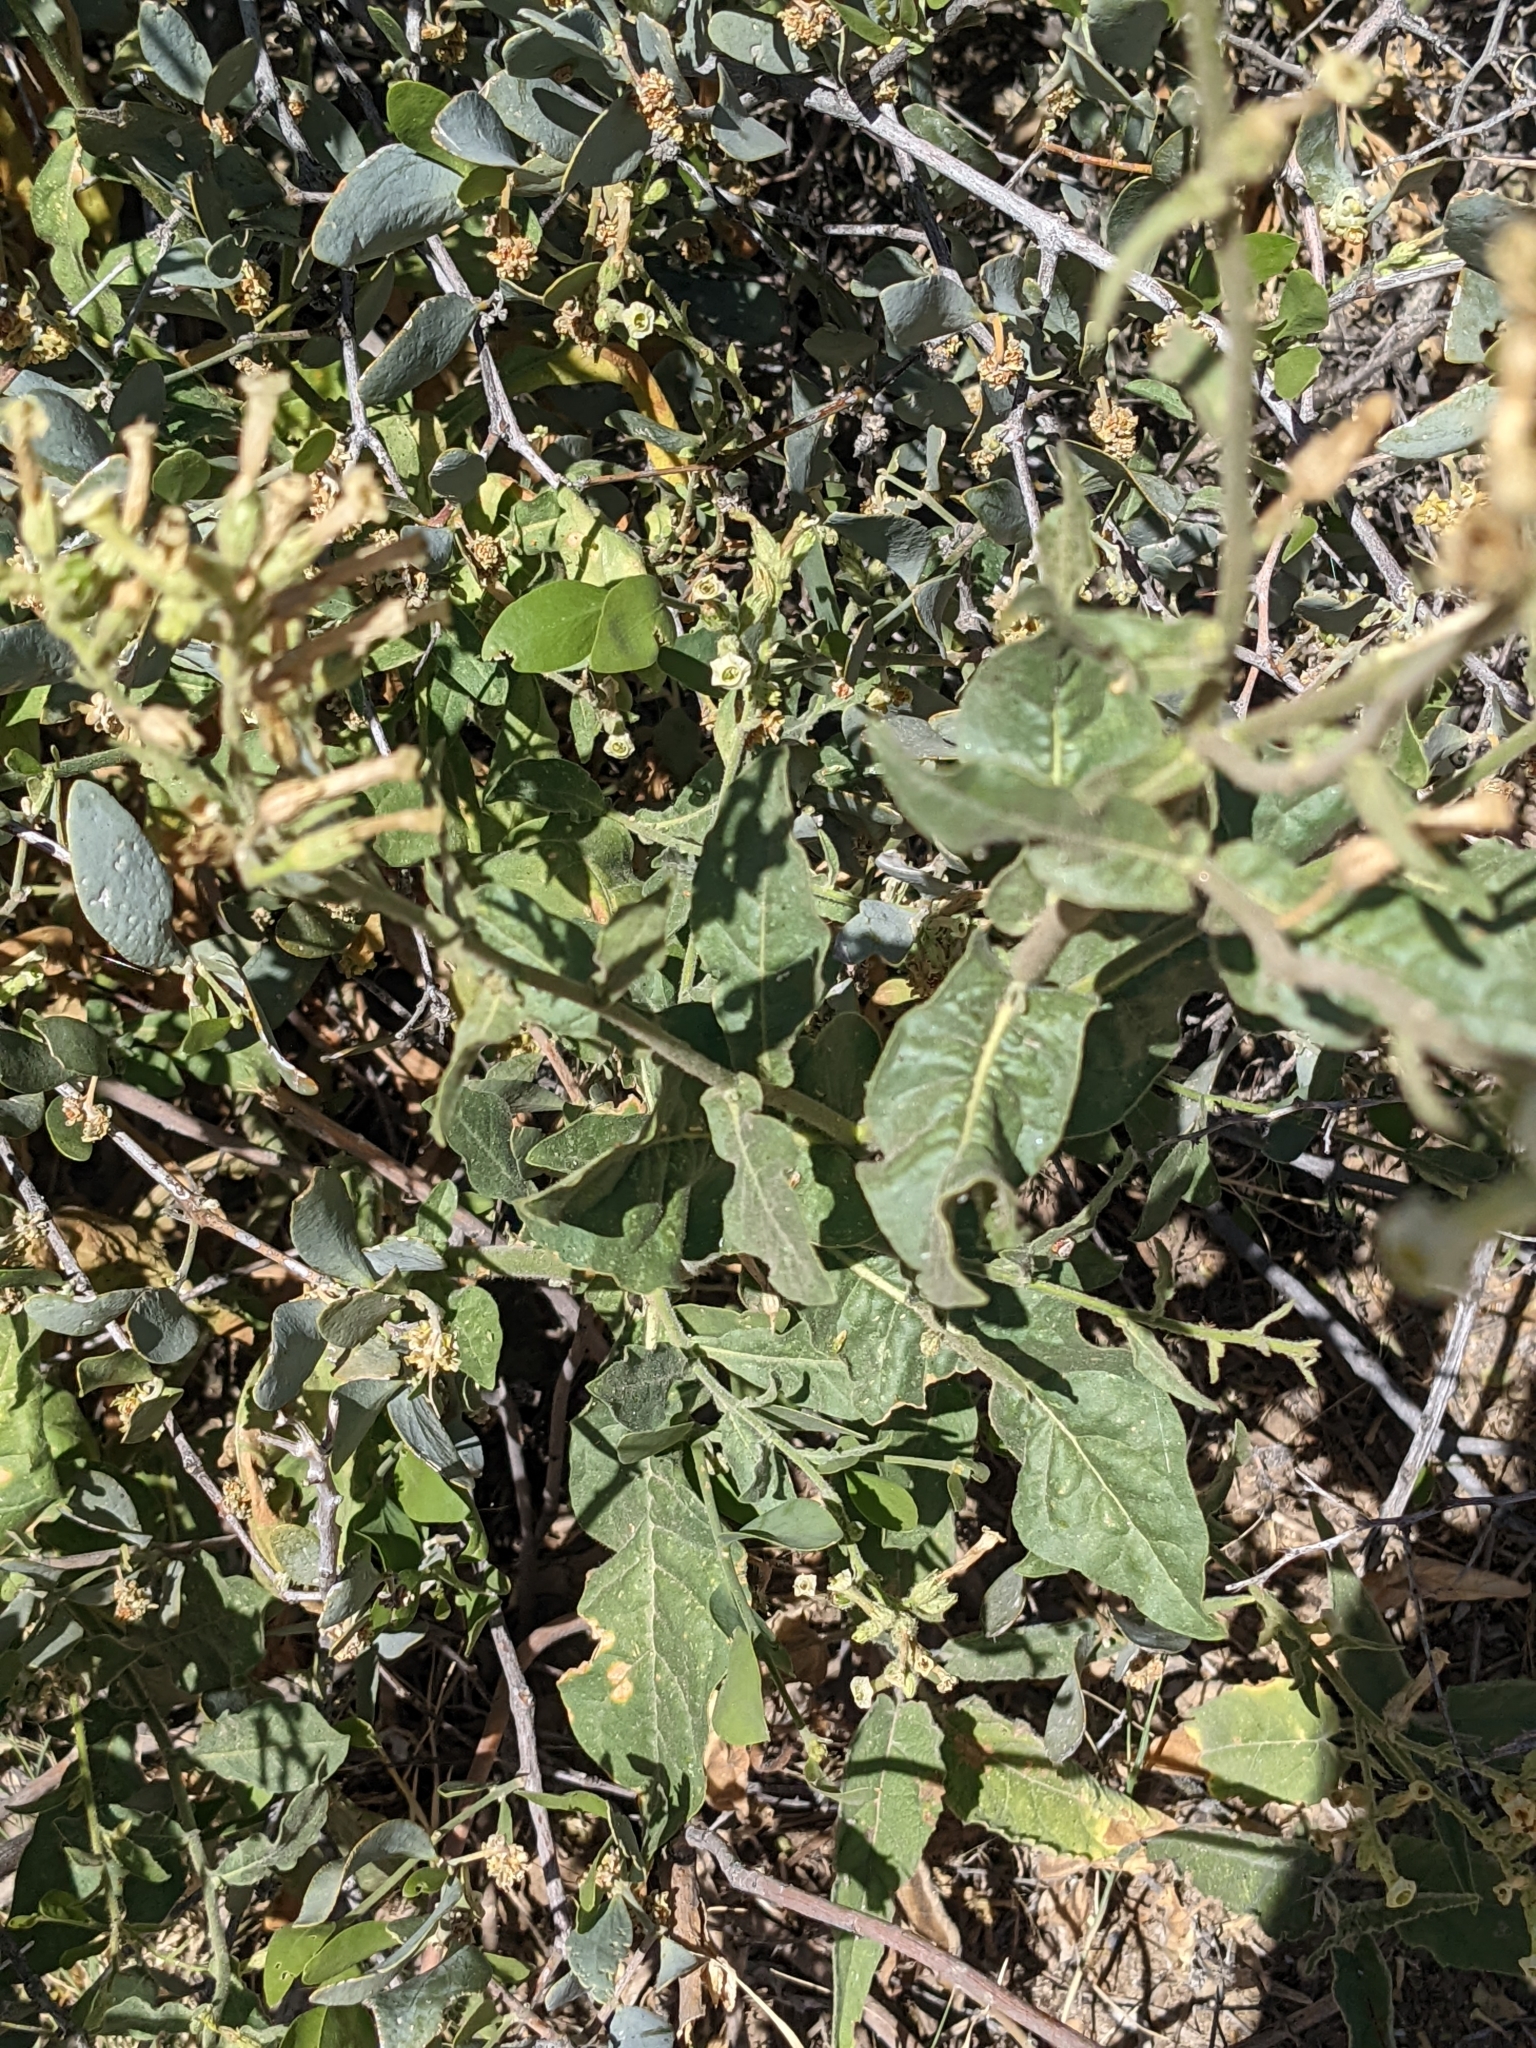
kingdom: Plantae
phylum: Tracheophyta
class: Magnoliopsida
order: Solanales
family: Solanaceae
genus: Nicotiana
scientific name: Nicotiana obtusifolia
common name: Desert tobacco
